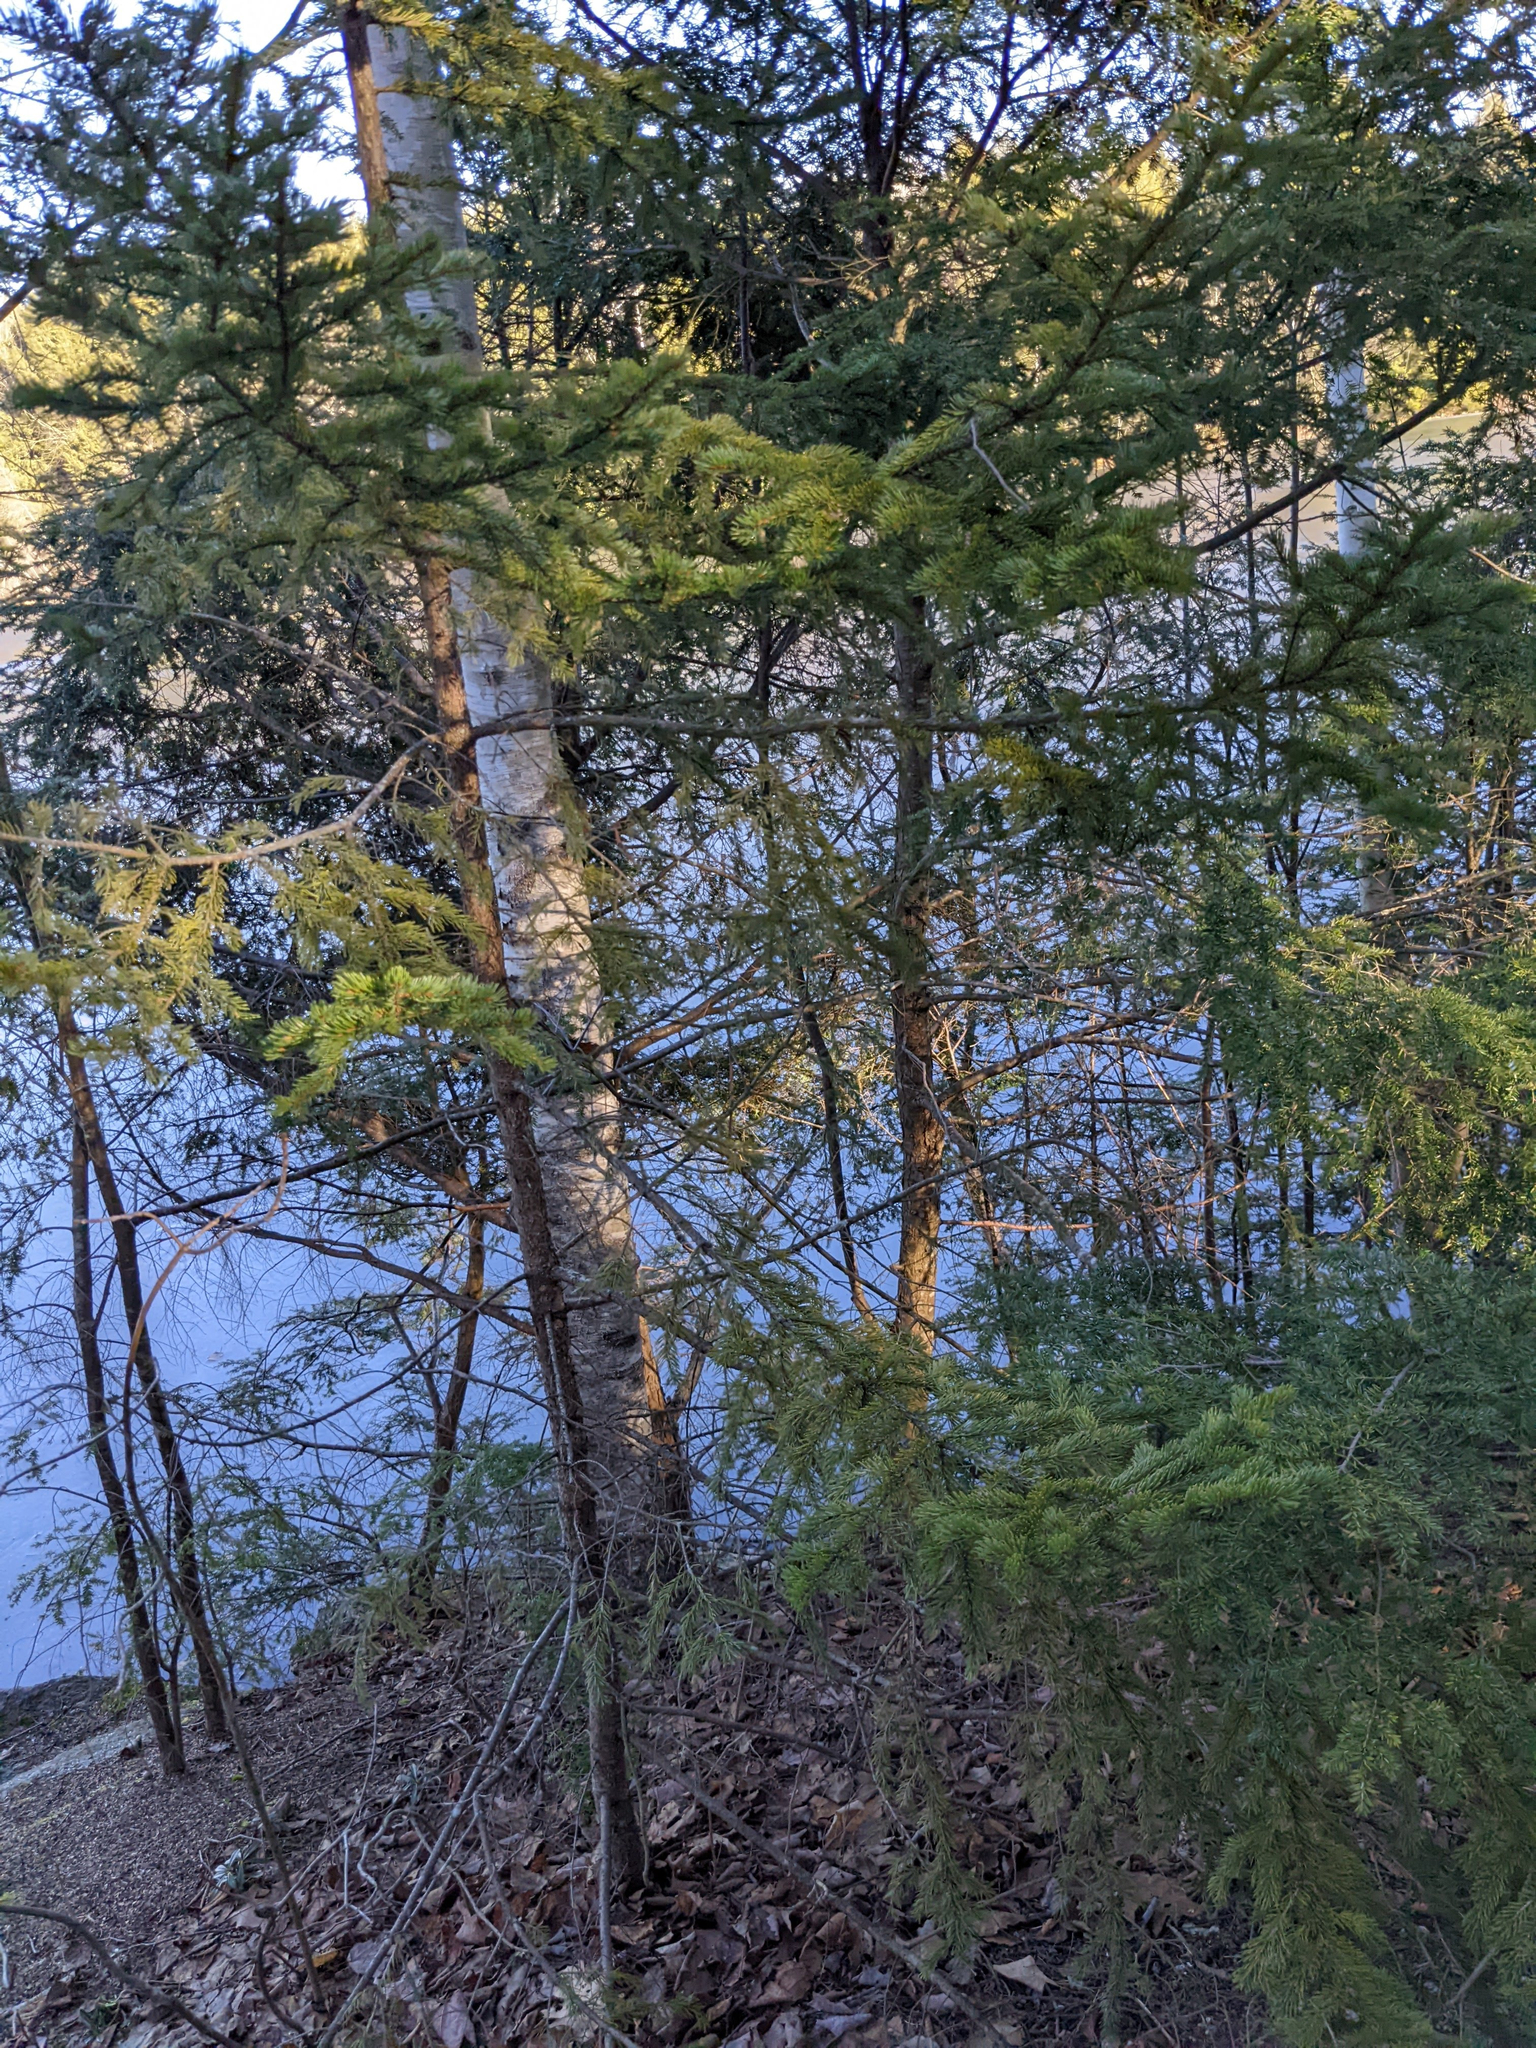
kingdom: Plantae
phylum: Tracheophyta
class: Pinopsida
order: Pinales
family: Pinaceae
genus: Picea
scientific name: Picea rubens
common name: Red spruce
